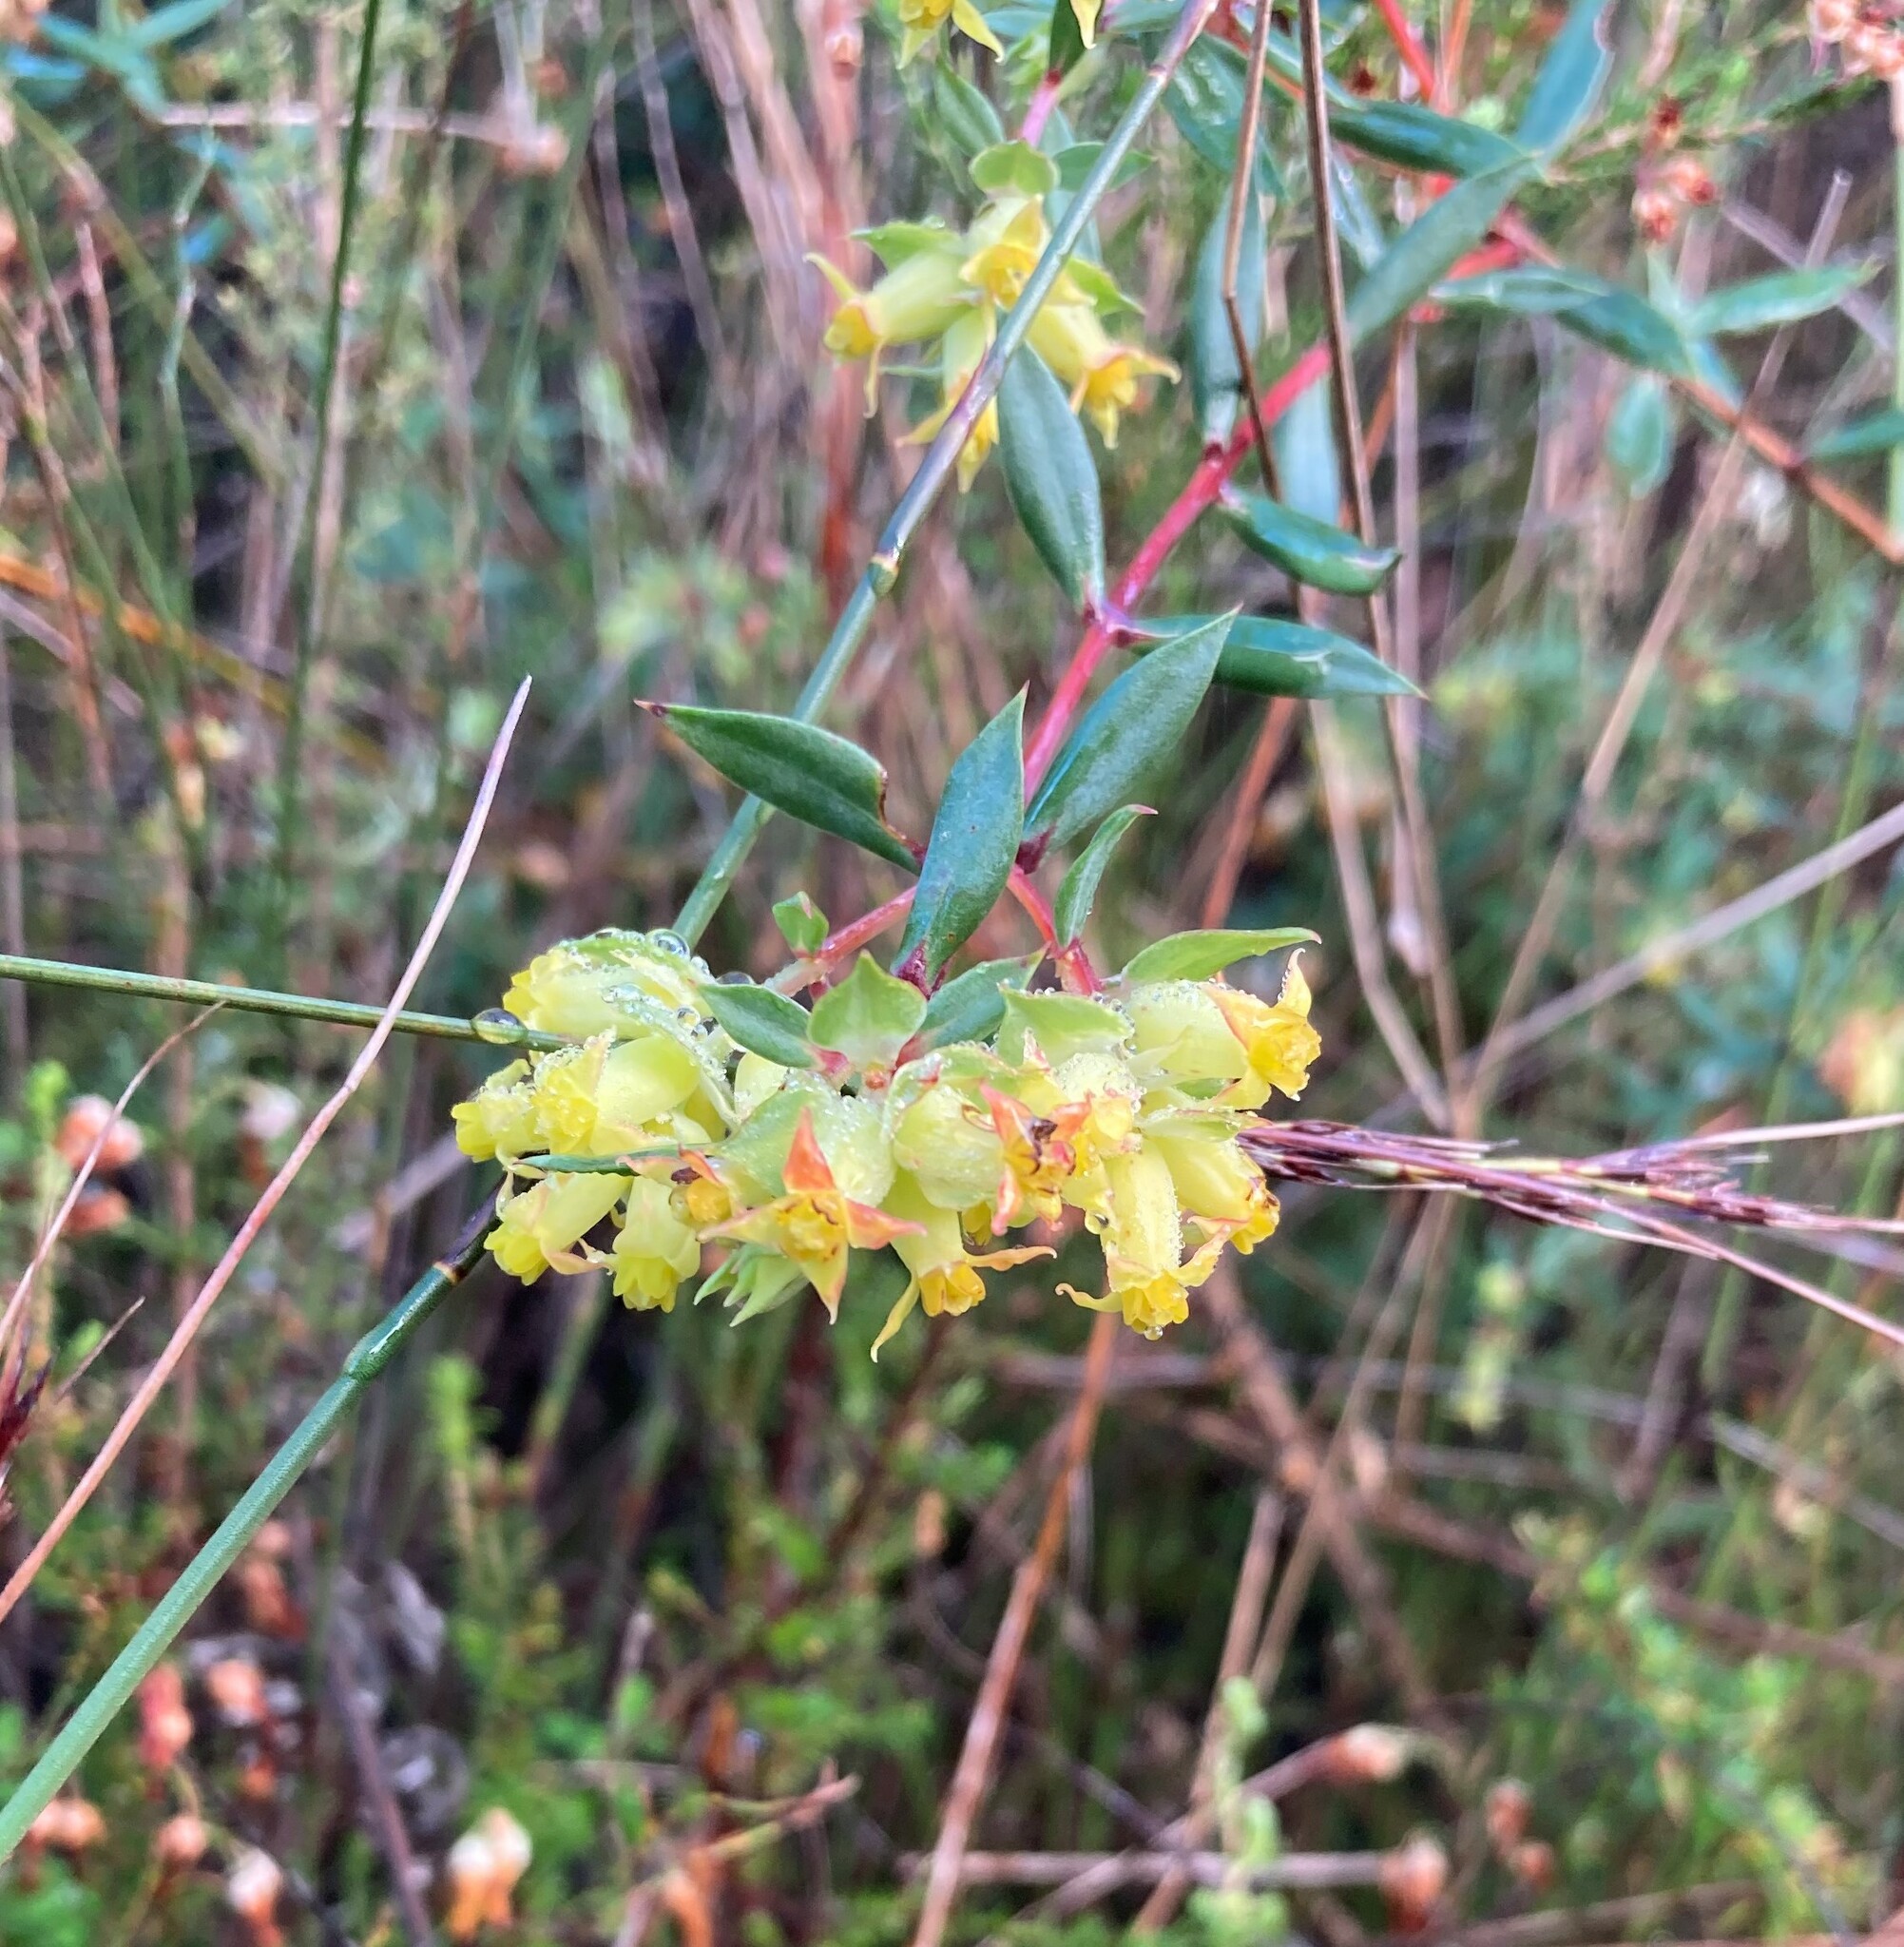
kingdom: Plantae
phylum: Tracheophyta
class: Magnoliopsida
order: Myrtales
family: Penaeaceae
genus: Penaea
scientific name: Penaea acutifolia
